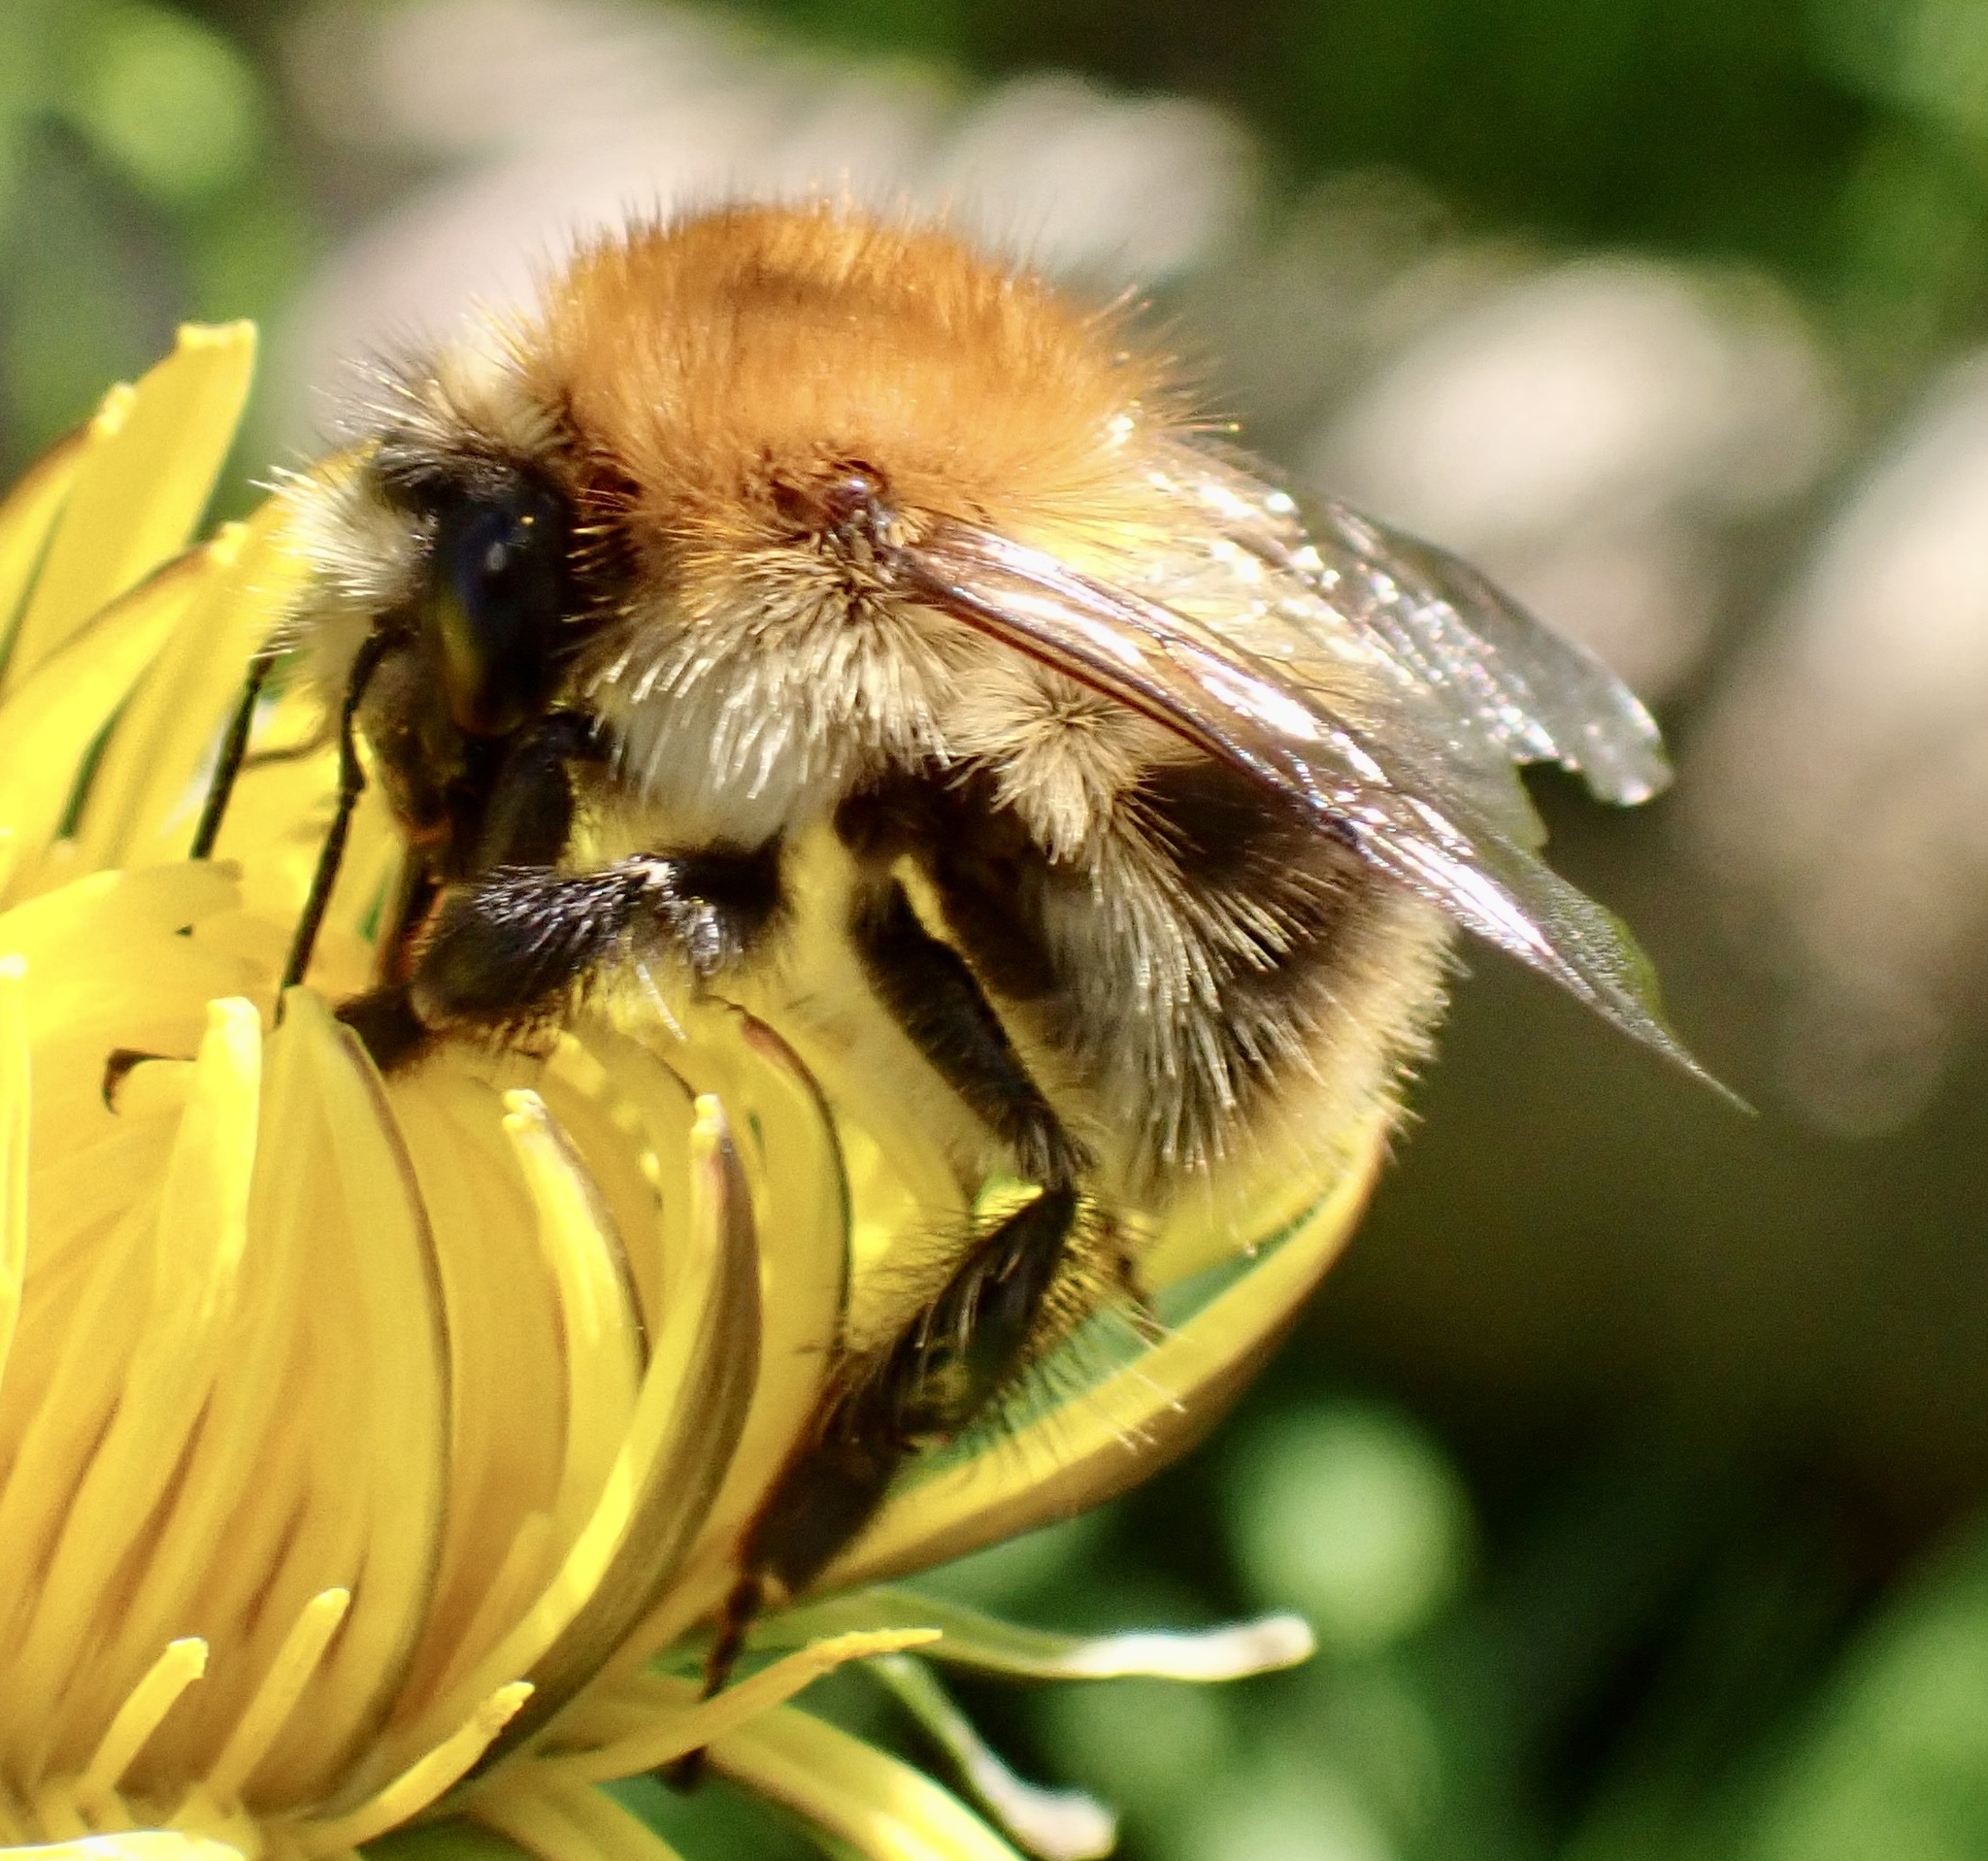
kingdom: Animalia
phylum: Arthropoda
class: Insecta
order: Hymenoptera
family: Apidae
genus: Bombus
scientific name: Bombus pascuorum
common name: Common carder bee
